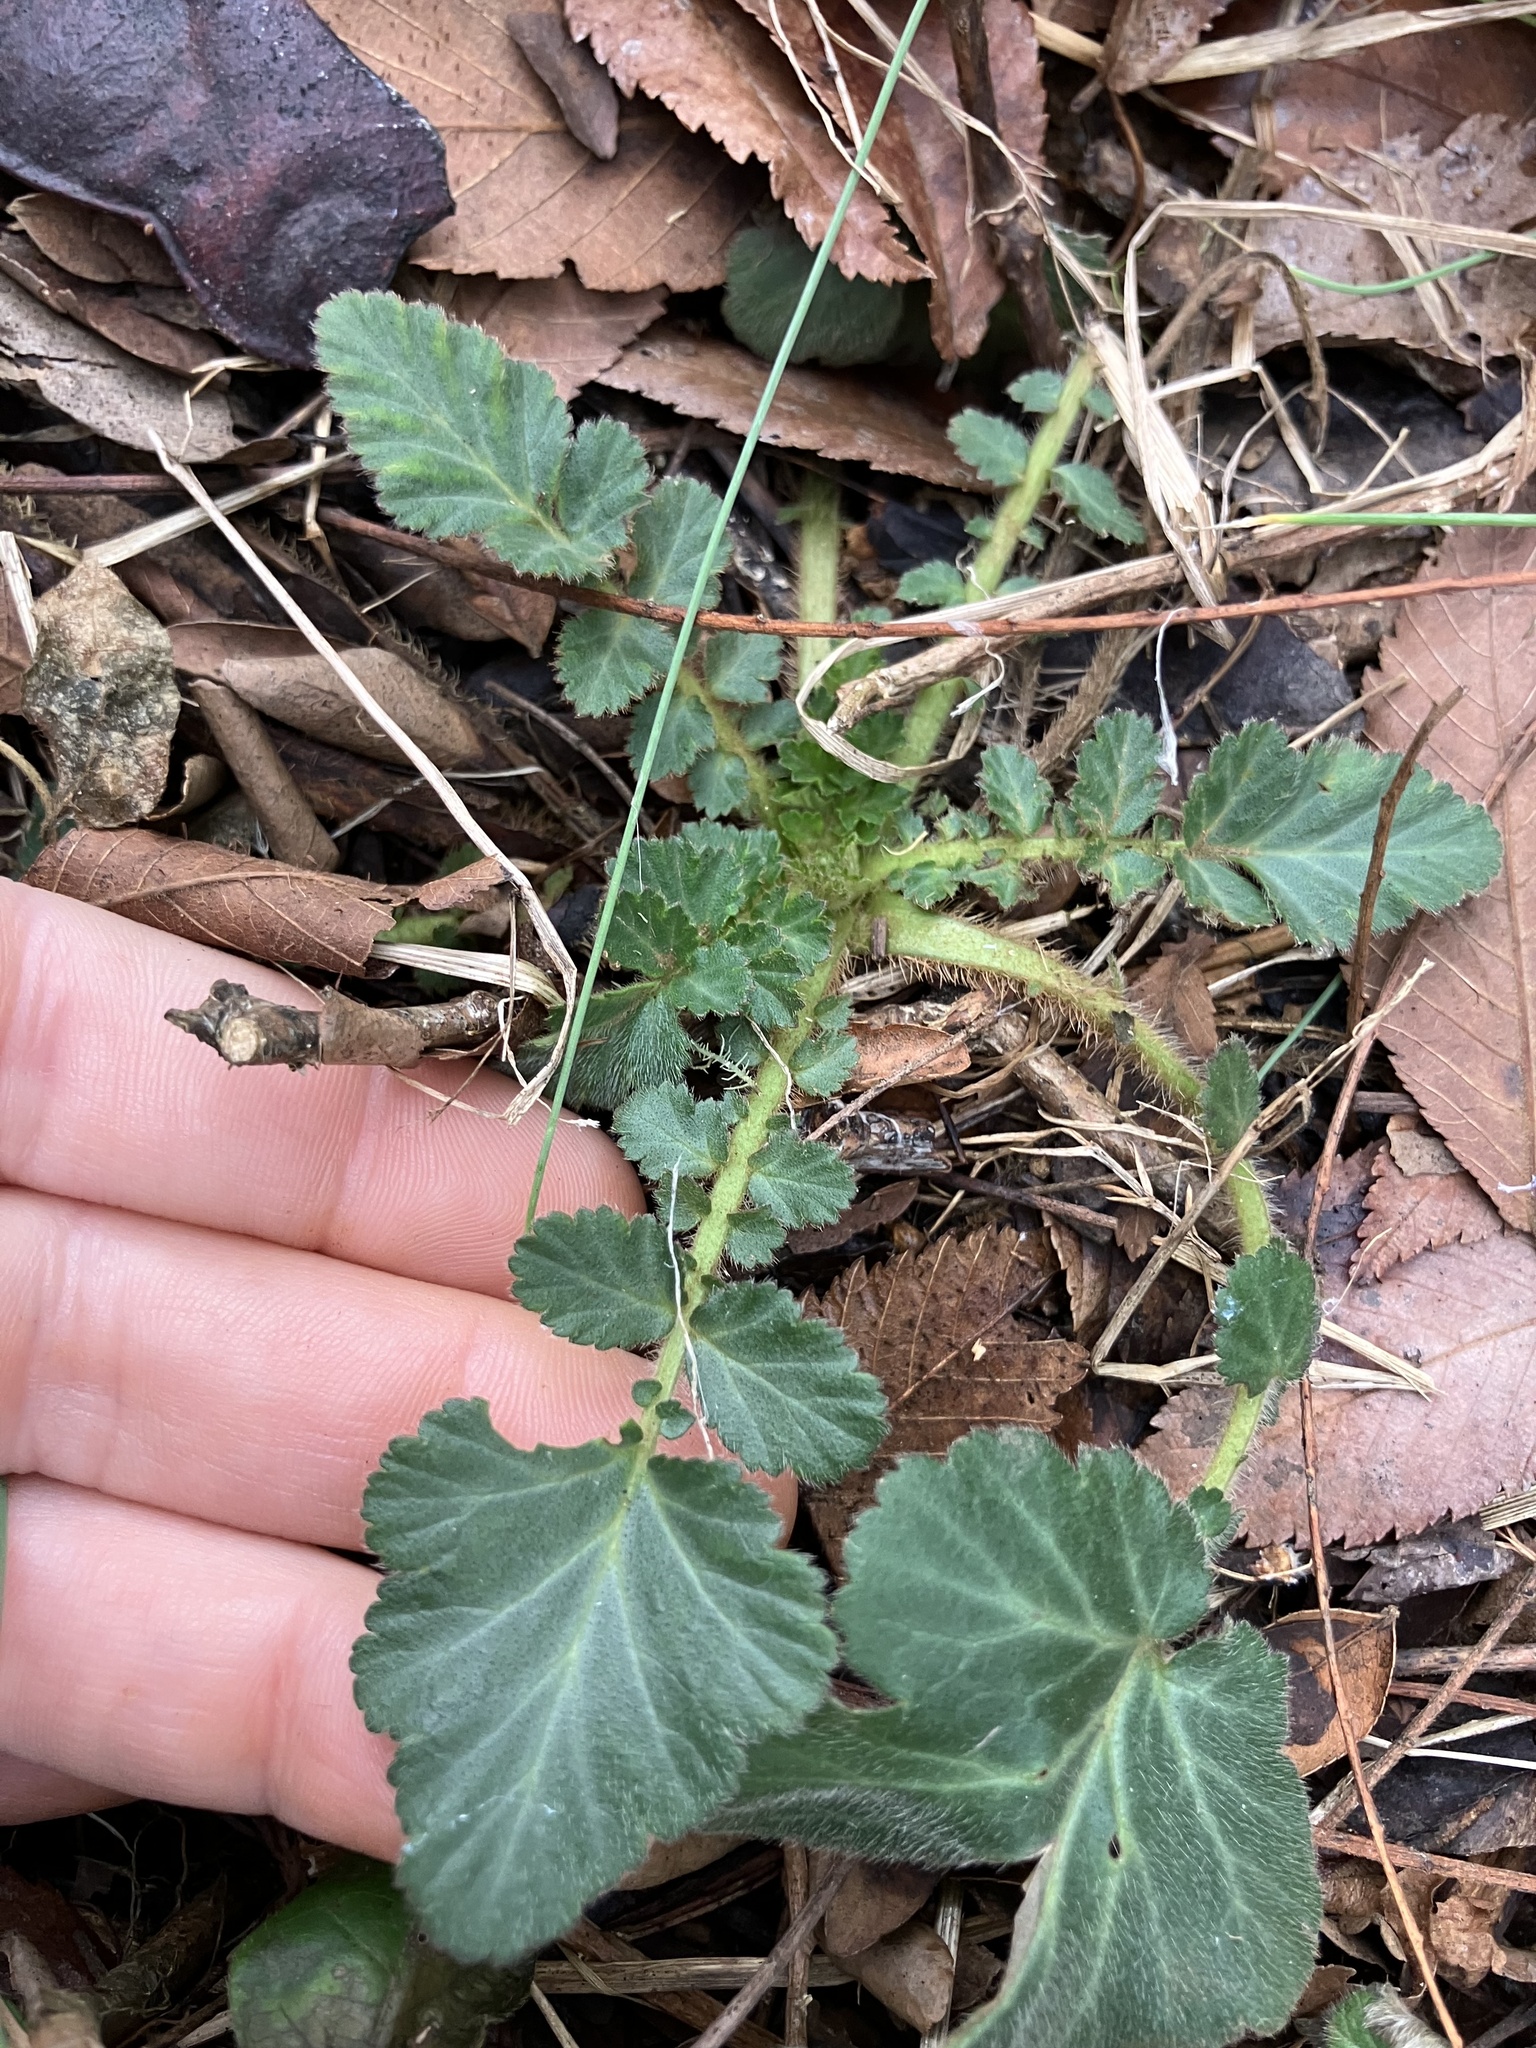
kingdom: Plantae
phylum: Tracheophyta
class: Magnoliopsida
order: Rosales
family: Rosaceae
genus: Geum
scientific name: Geum canadense
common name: White avens
